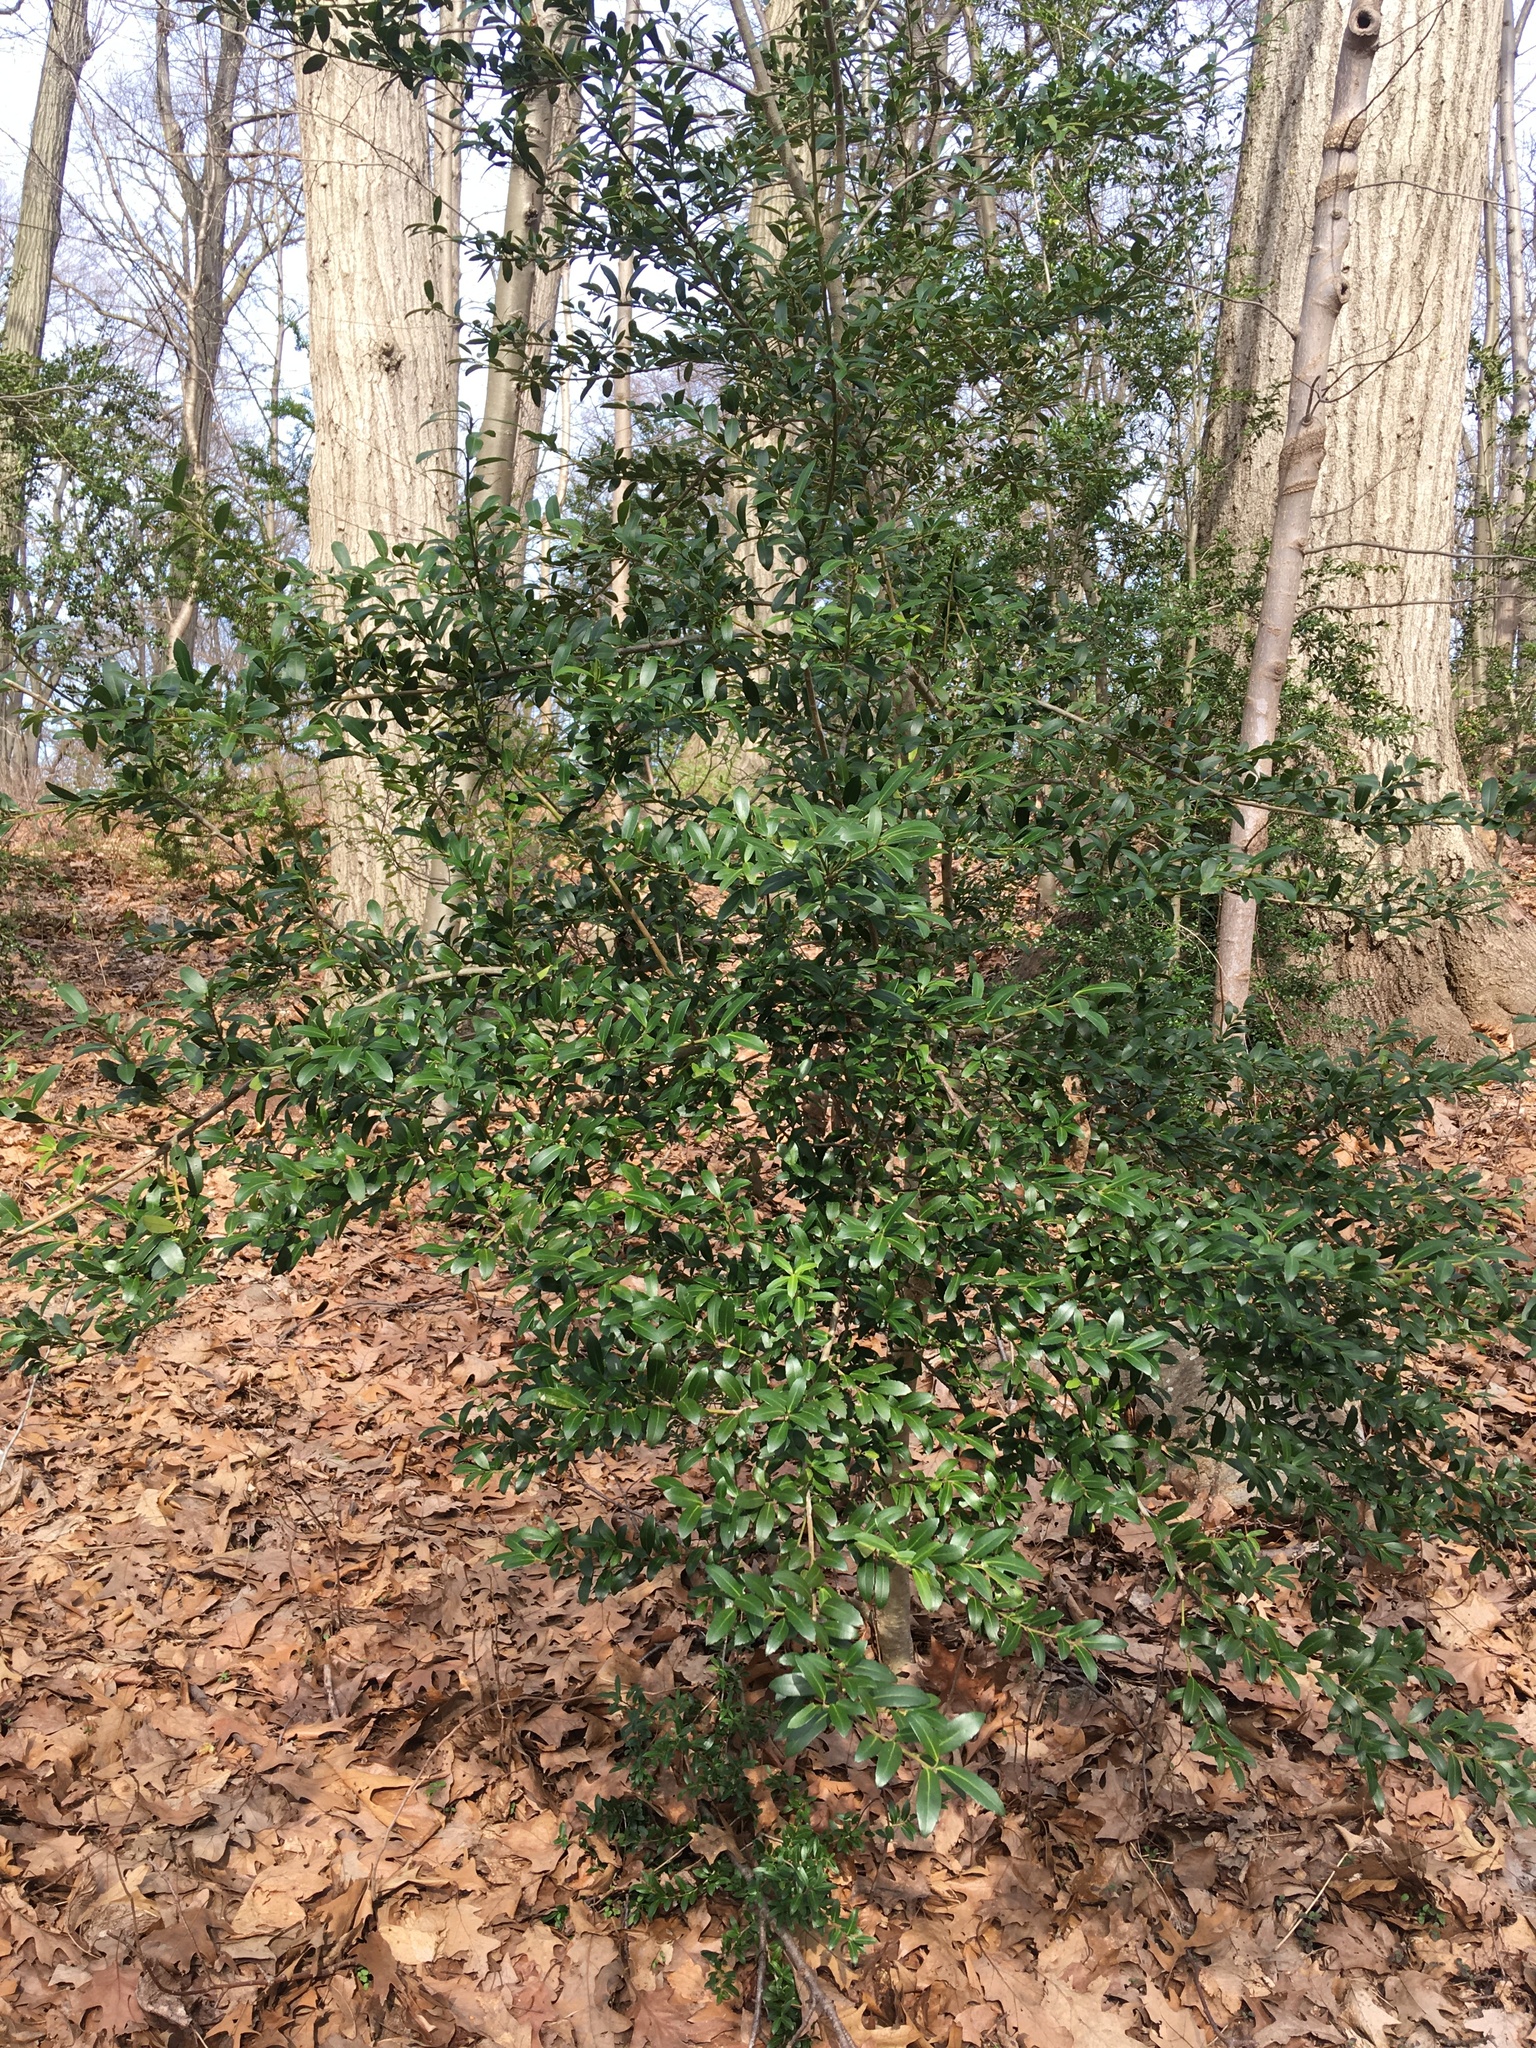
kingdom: Plantae
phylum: Tracheophyta
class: Magnoliopsida
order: Aquifoliales
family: Aquifoliaceae
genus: Ilex
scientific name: Ilex crenata
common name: Japanese holly
